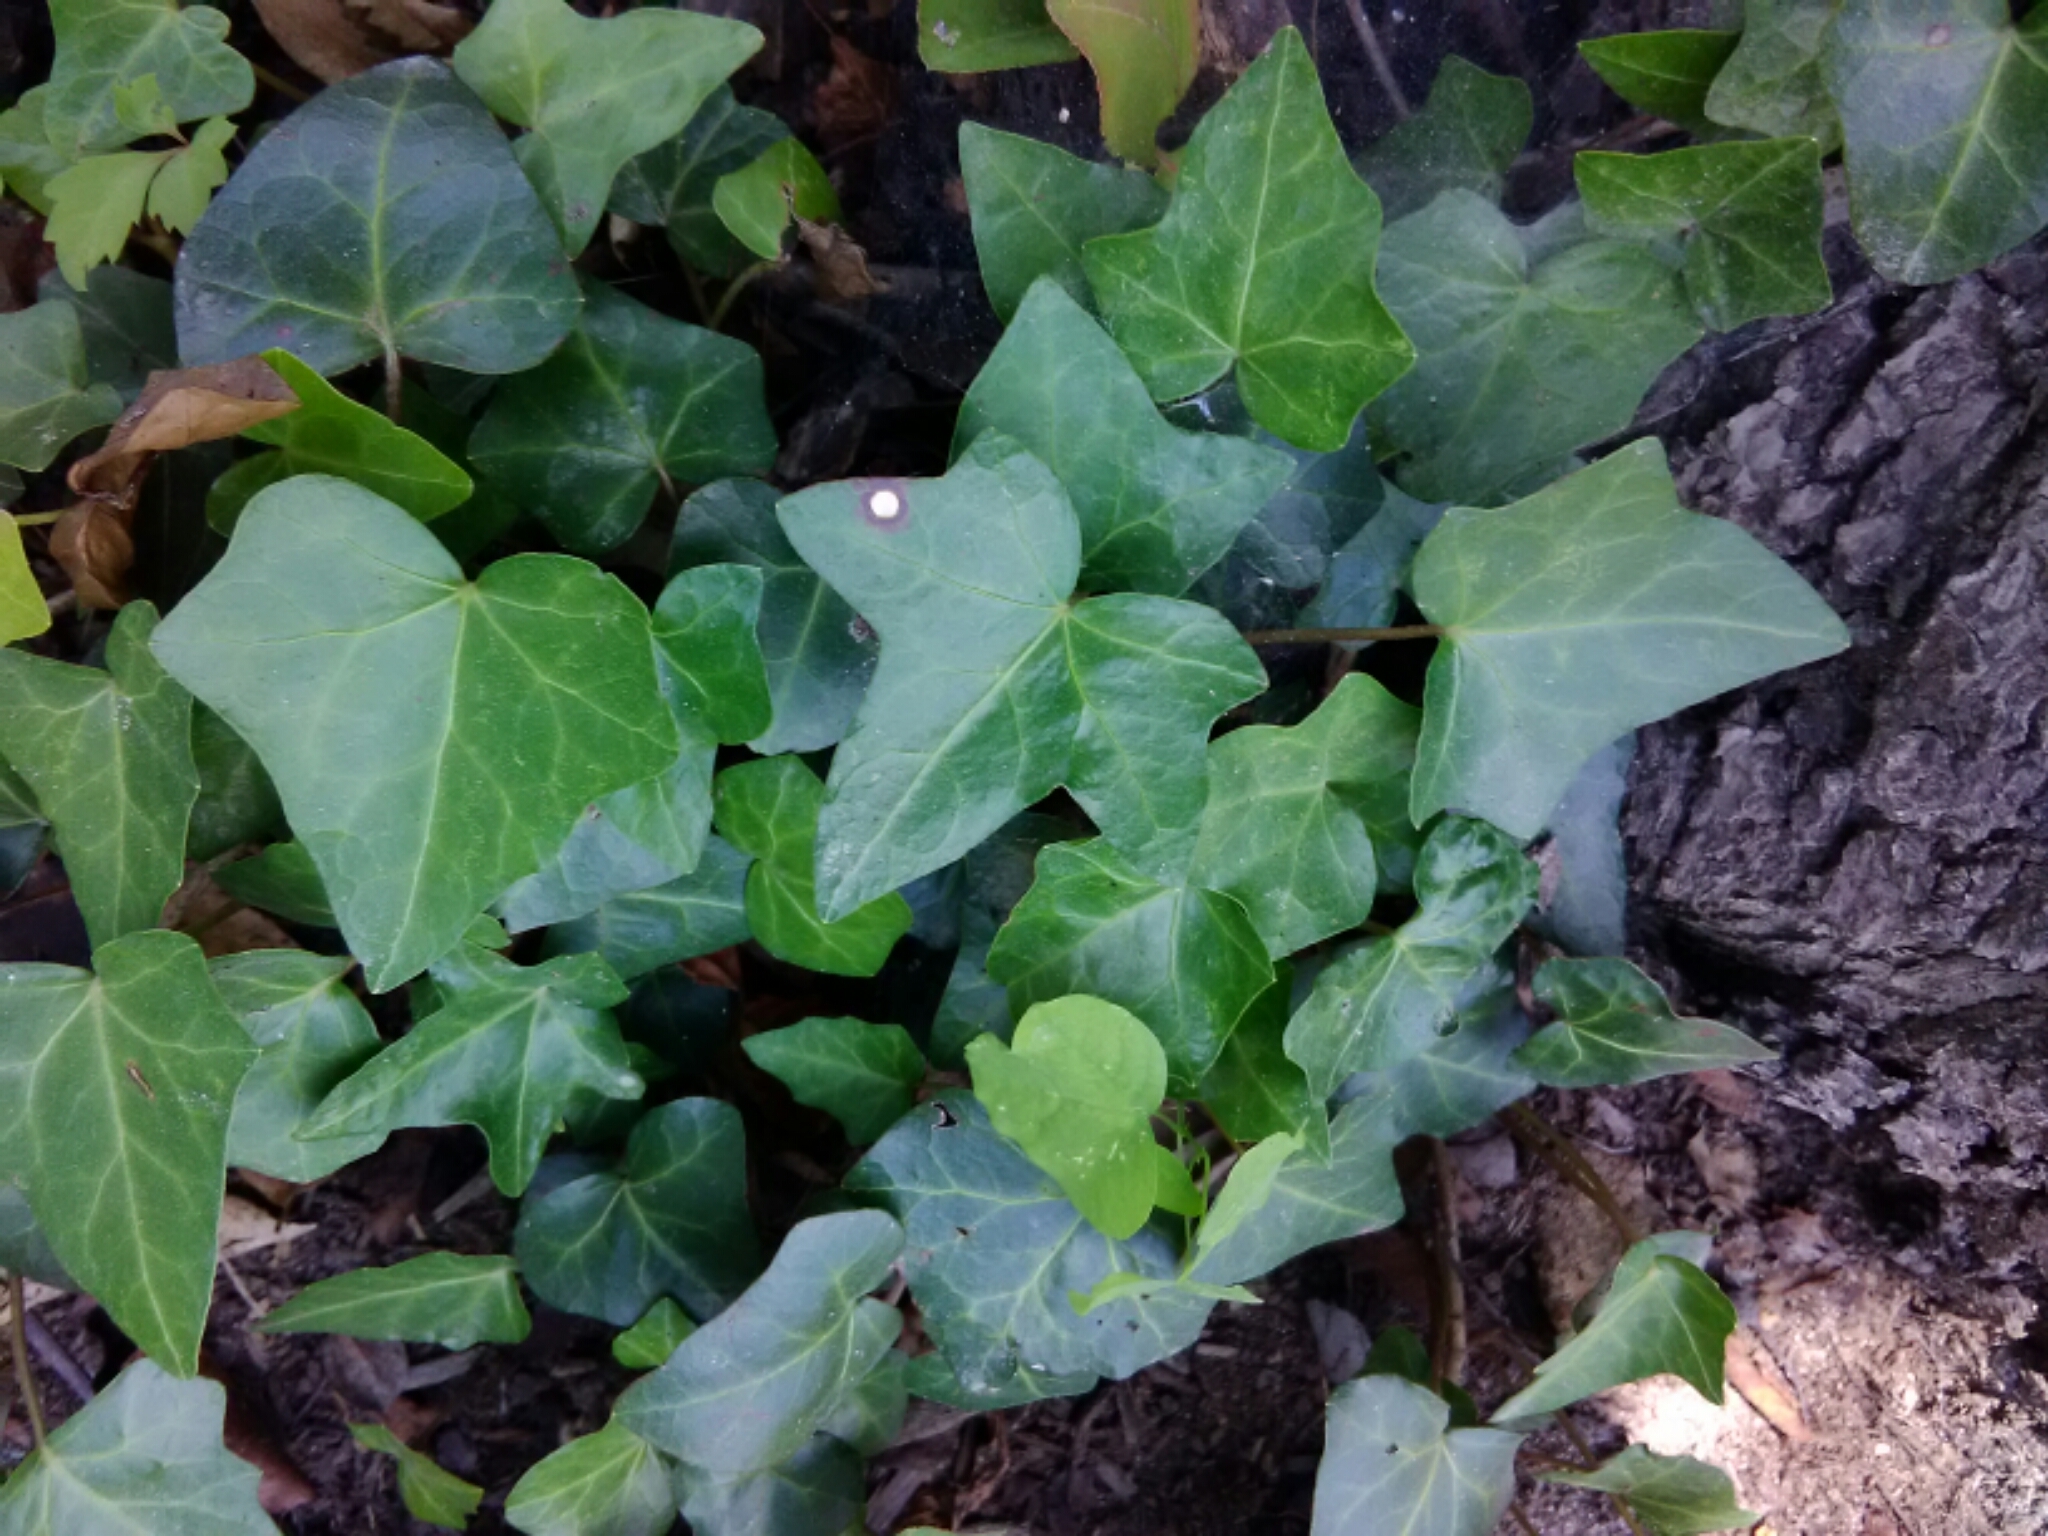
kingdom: Plantae
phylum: Tracheophyta
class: Magnoliopsida
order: Apiales
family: Araliaceae
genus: Hedera
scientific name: Hedera helix
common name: Ivy
